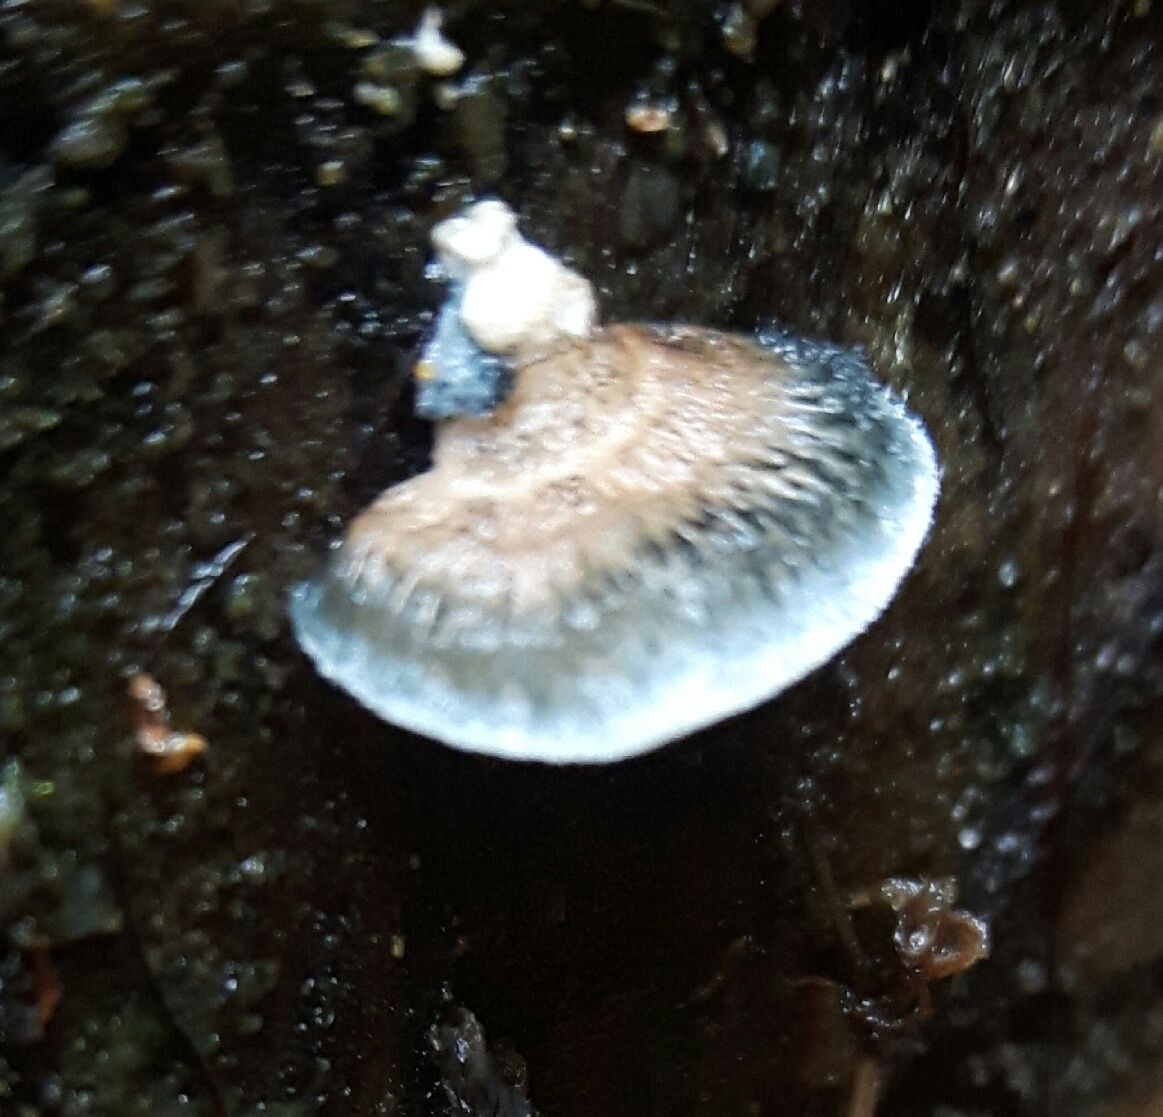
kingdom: Fungi
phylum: Basidiomycota
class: Agaricomycetes
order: Polyporales
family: Polyporaceae
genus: Cyanosporus
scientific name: Cyanosporus caesius
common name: Blue cheese polypore
